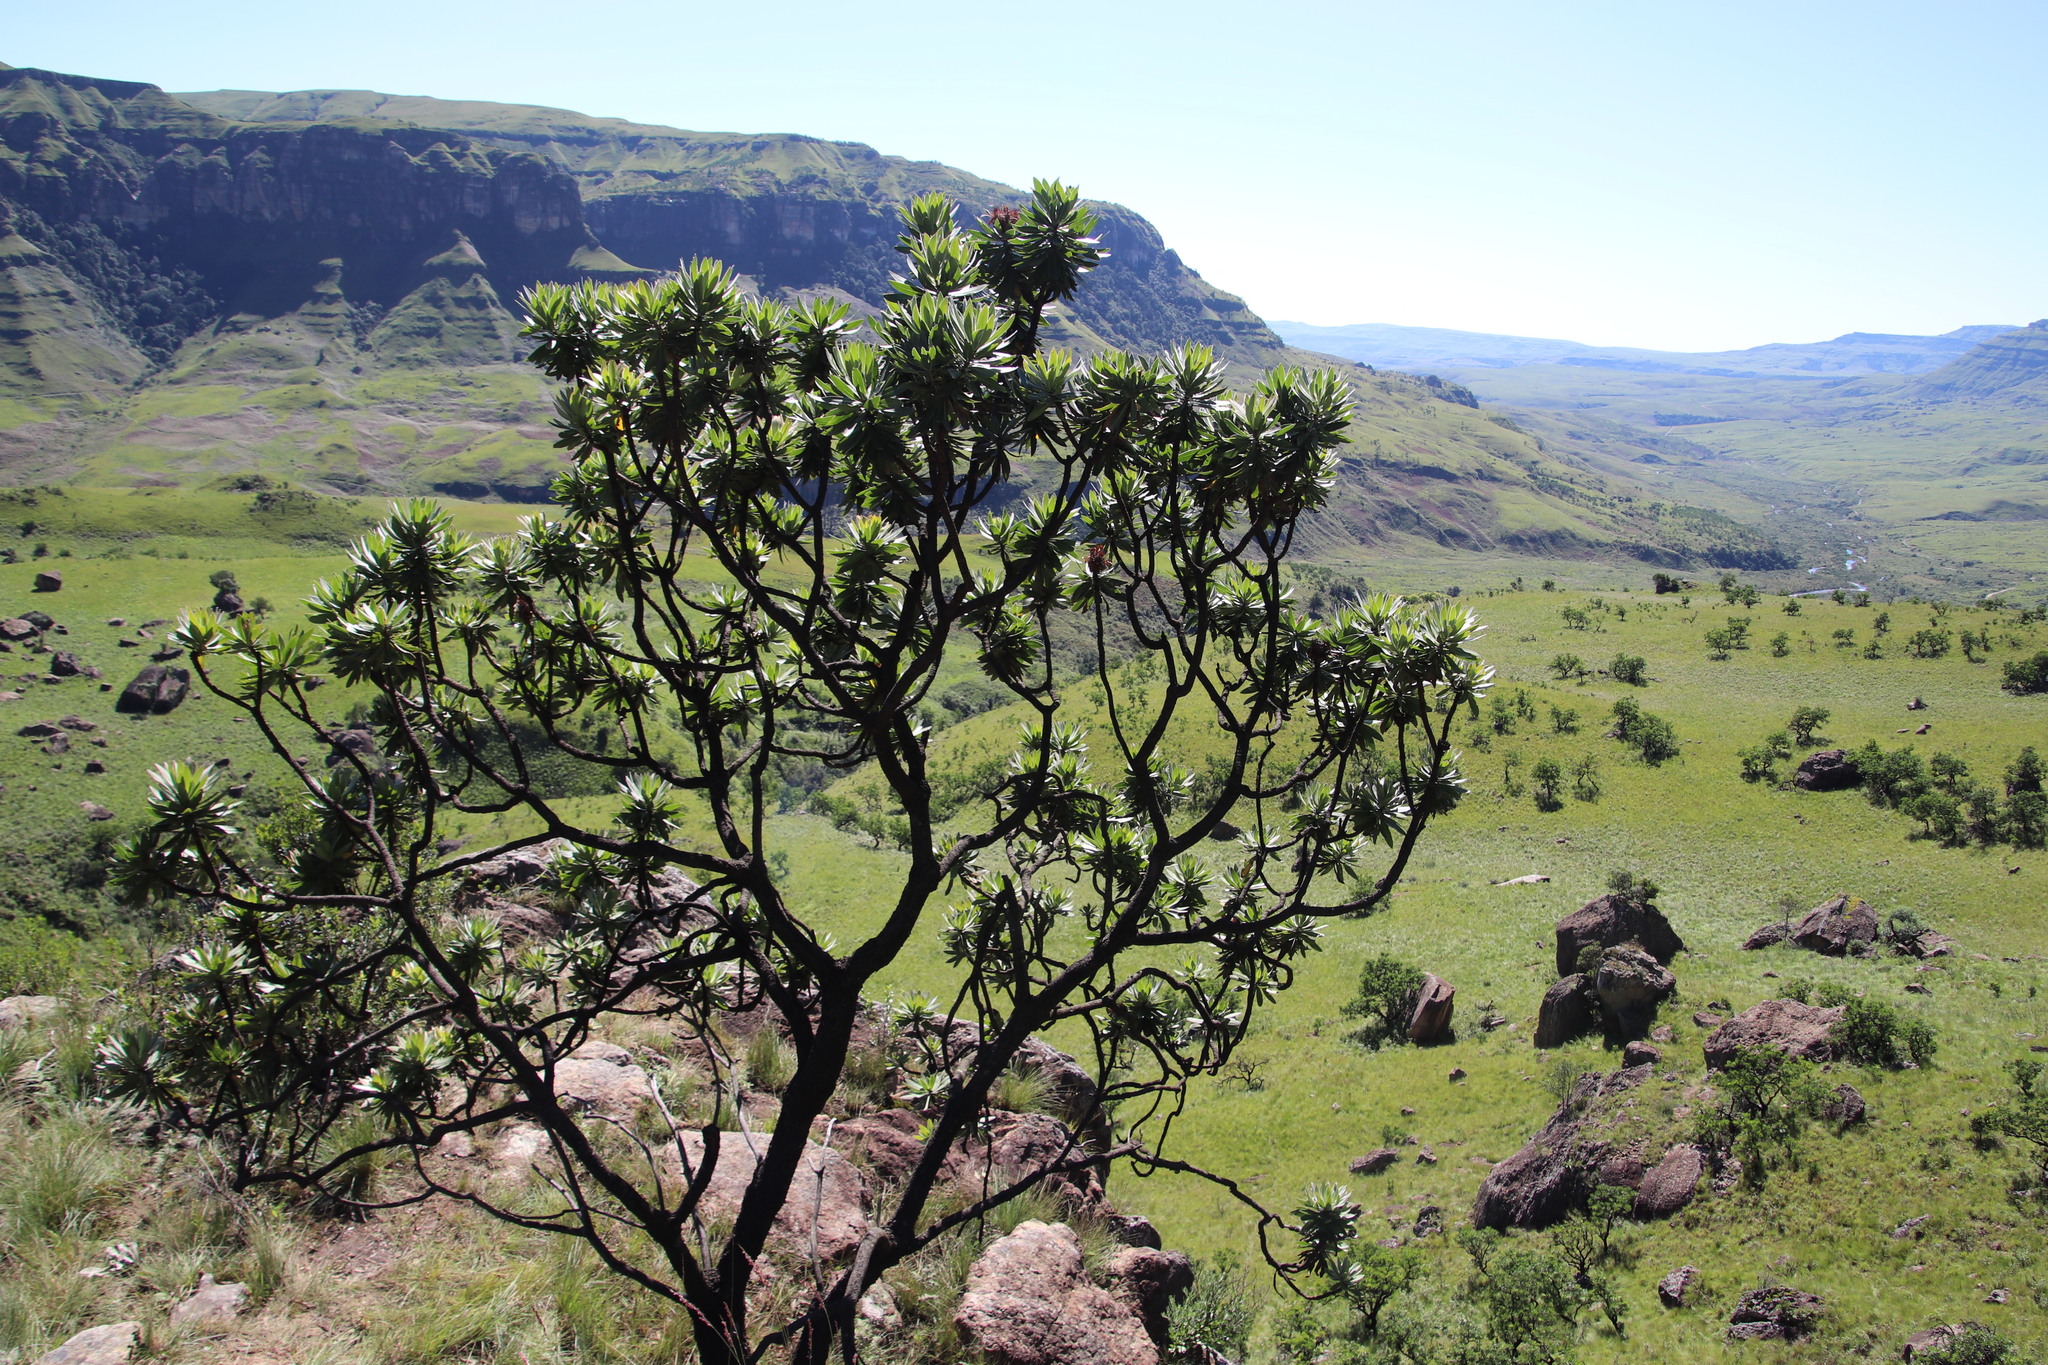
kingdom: Plantae
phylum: Tracheophyta
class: Magnoliopsida
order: Proteales
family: Proteaceae
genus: Protea
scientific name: Protea roupelliae
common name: Silver sugarbush
